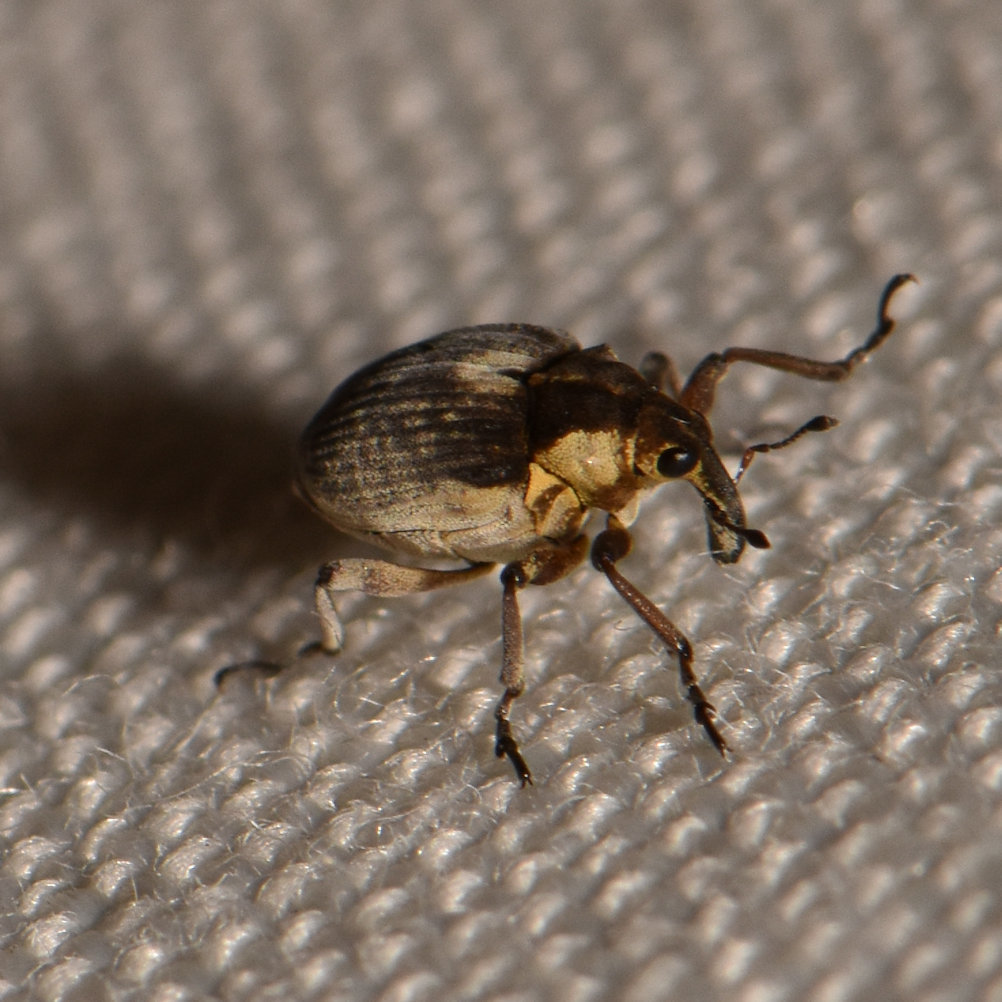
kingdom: Animalia
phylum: Arthropoda
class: Insecta
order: Coleoptera
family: Curculionidae
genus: Phytobius
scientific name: Phytobius leucogaster
